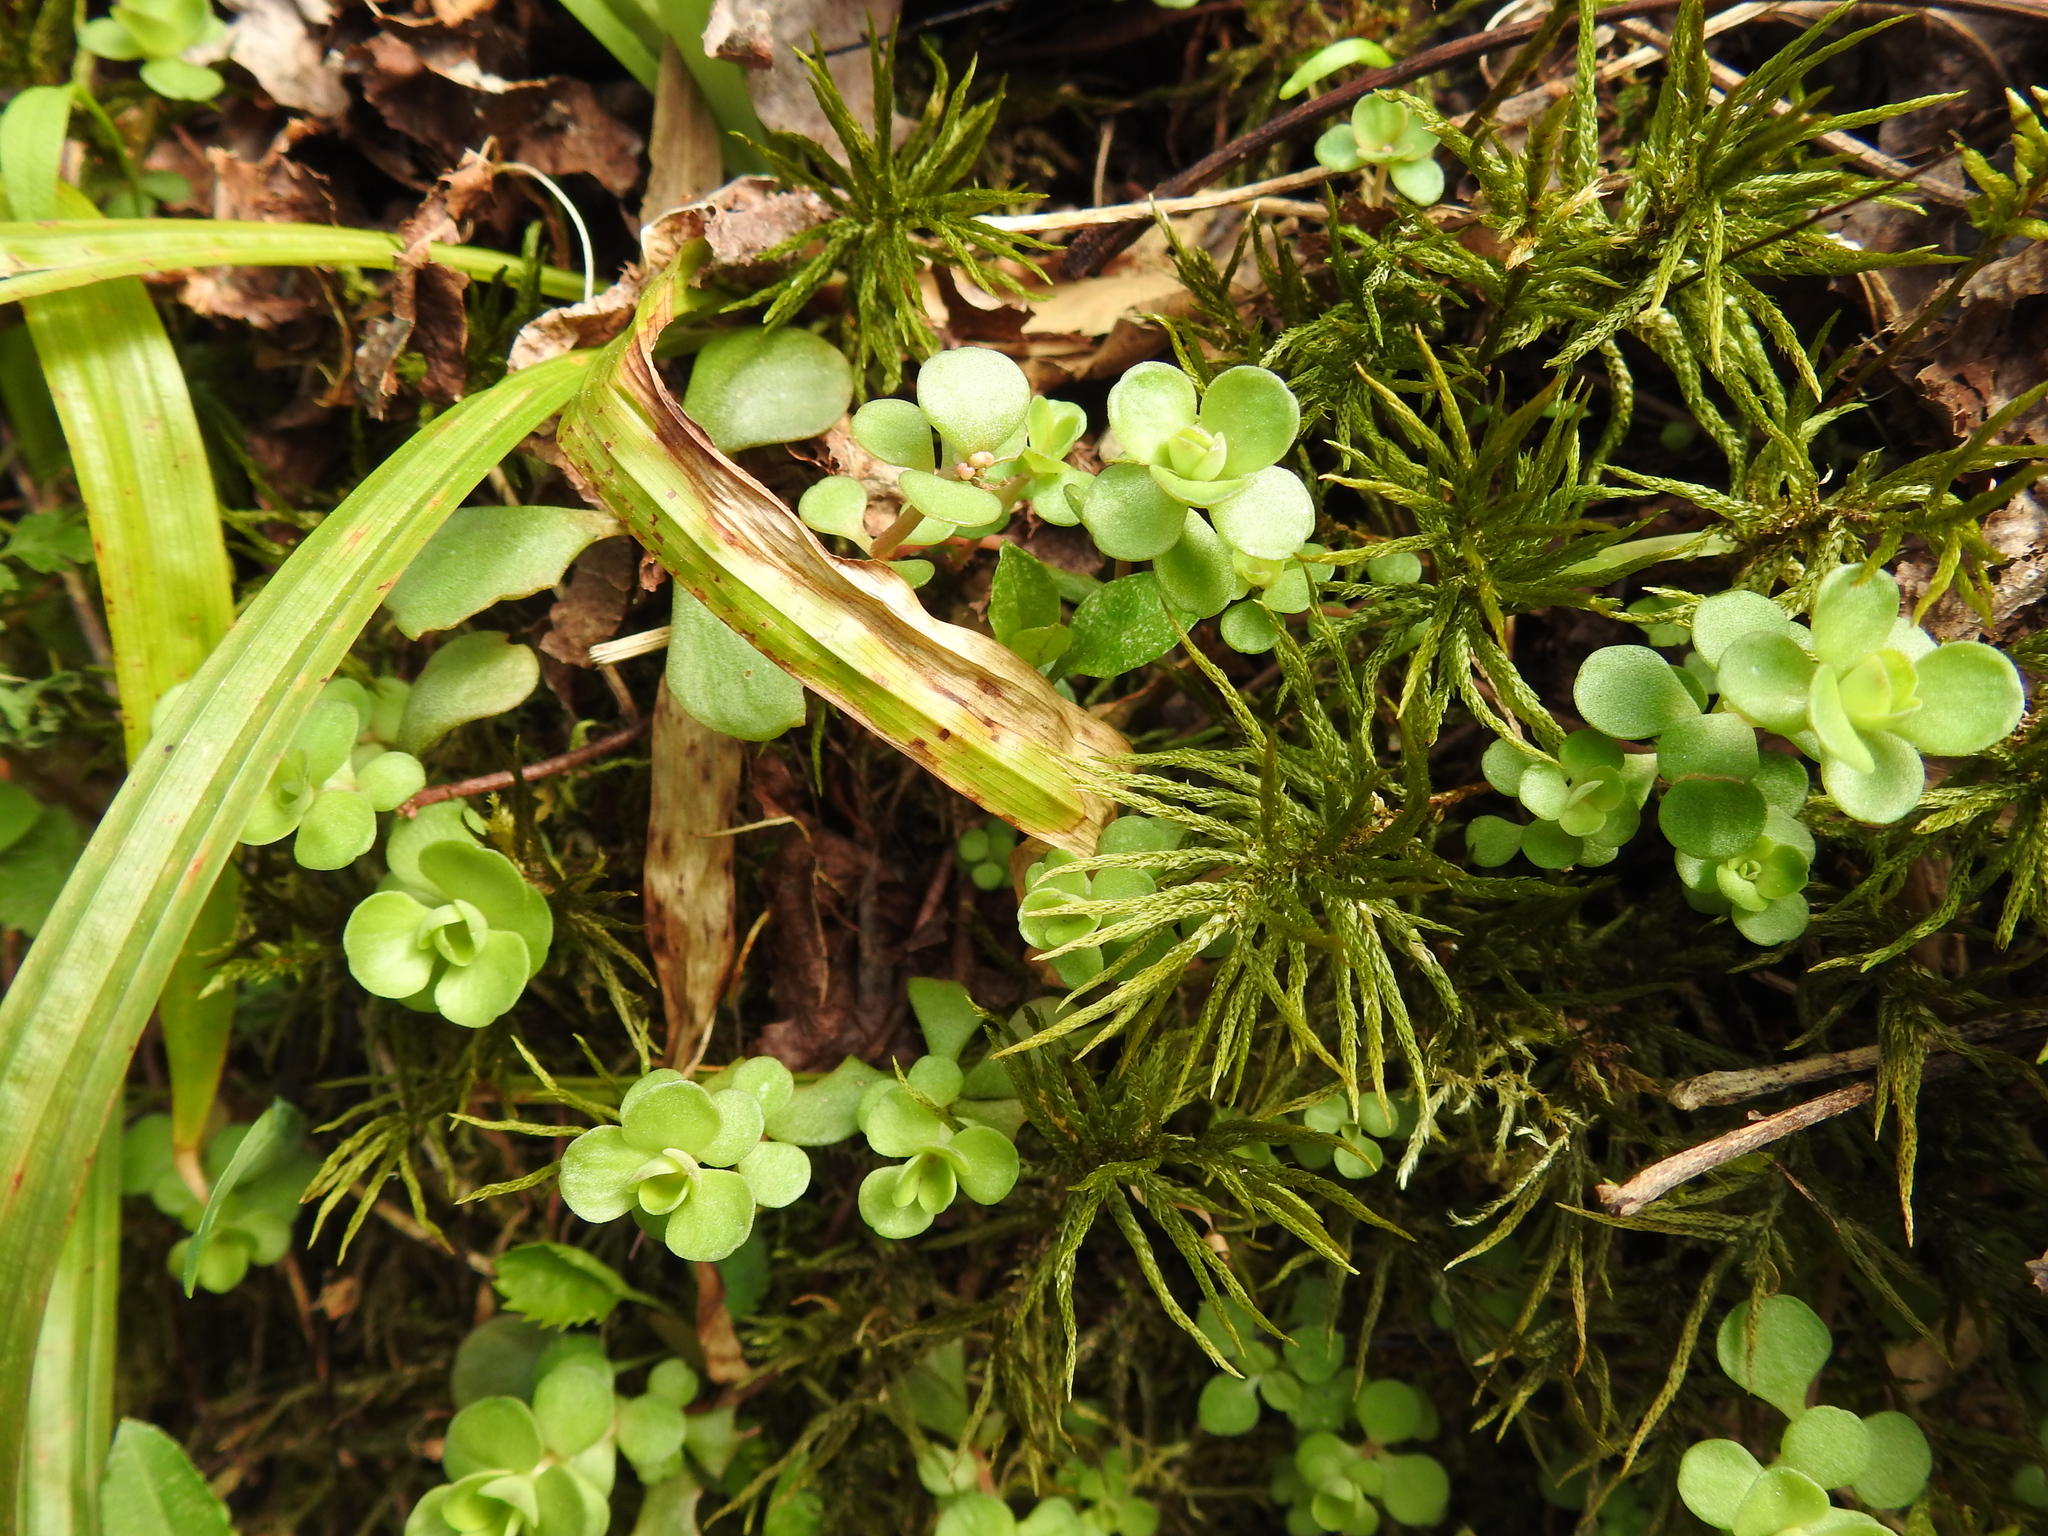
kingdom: Plantae
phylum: Tracheophyta
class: Magnoliopsida
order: Saxifragales
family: Crassulaceae
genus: Sedum
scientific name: Sedum ternatum
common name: Wild stonecrop
